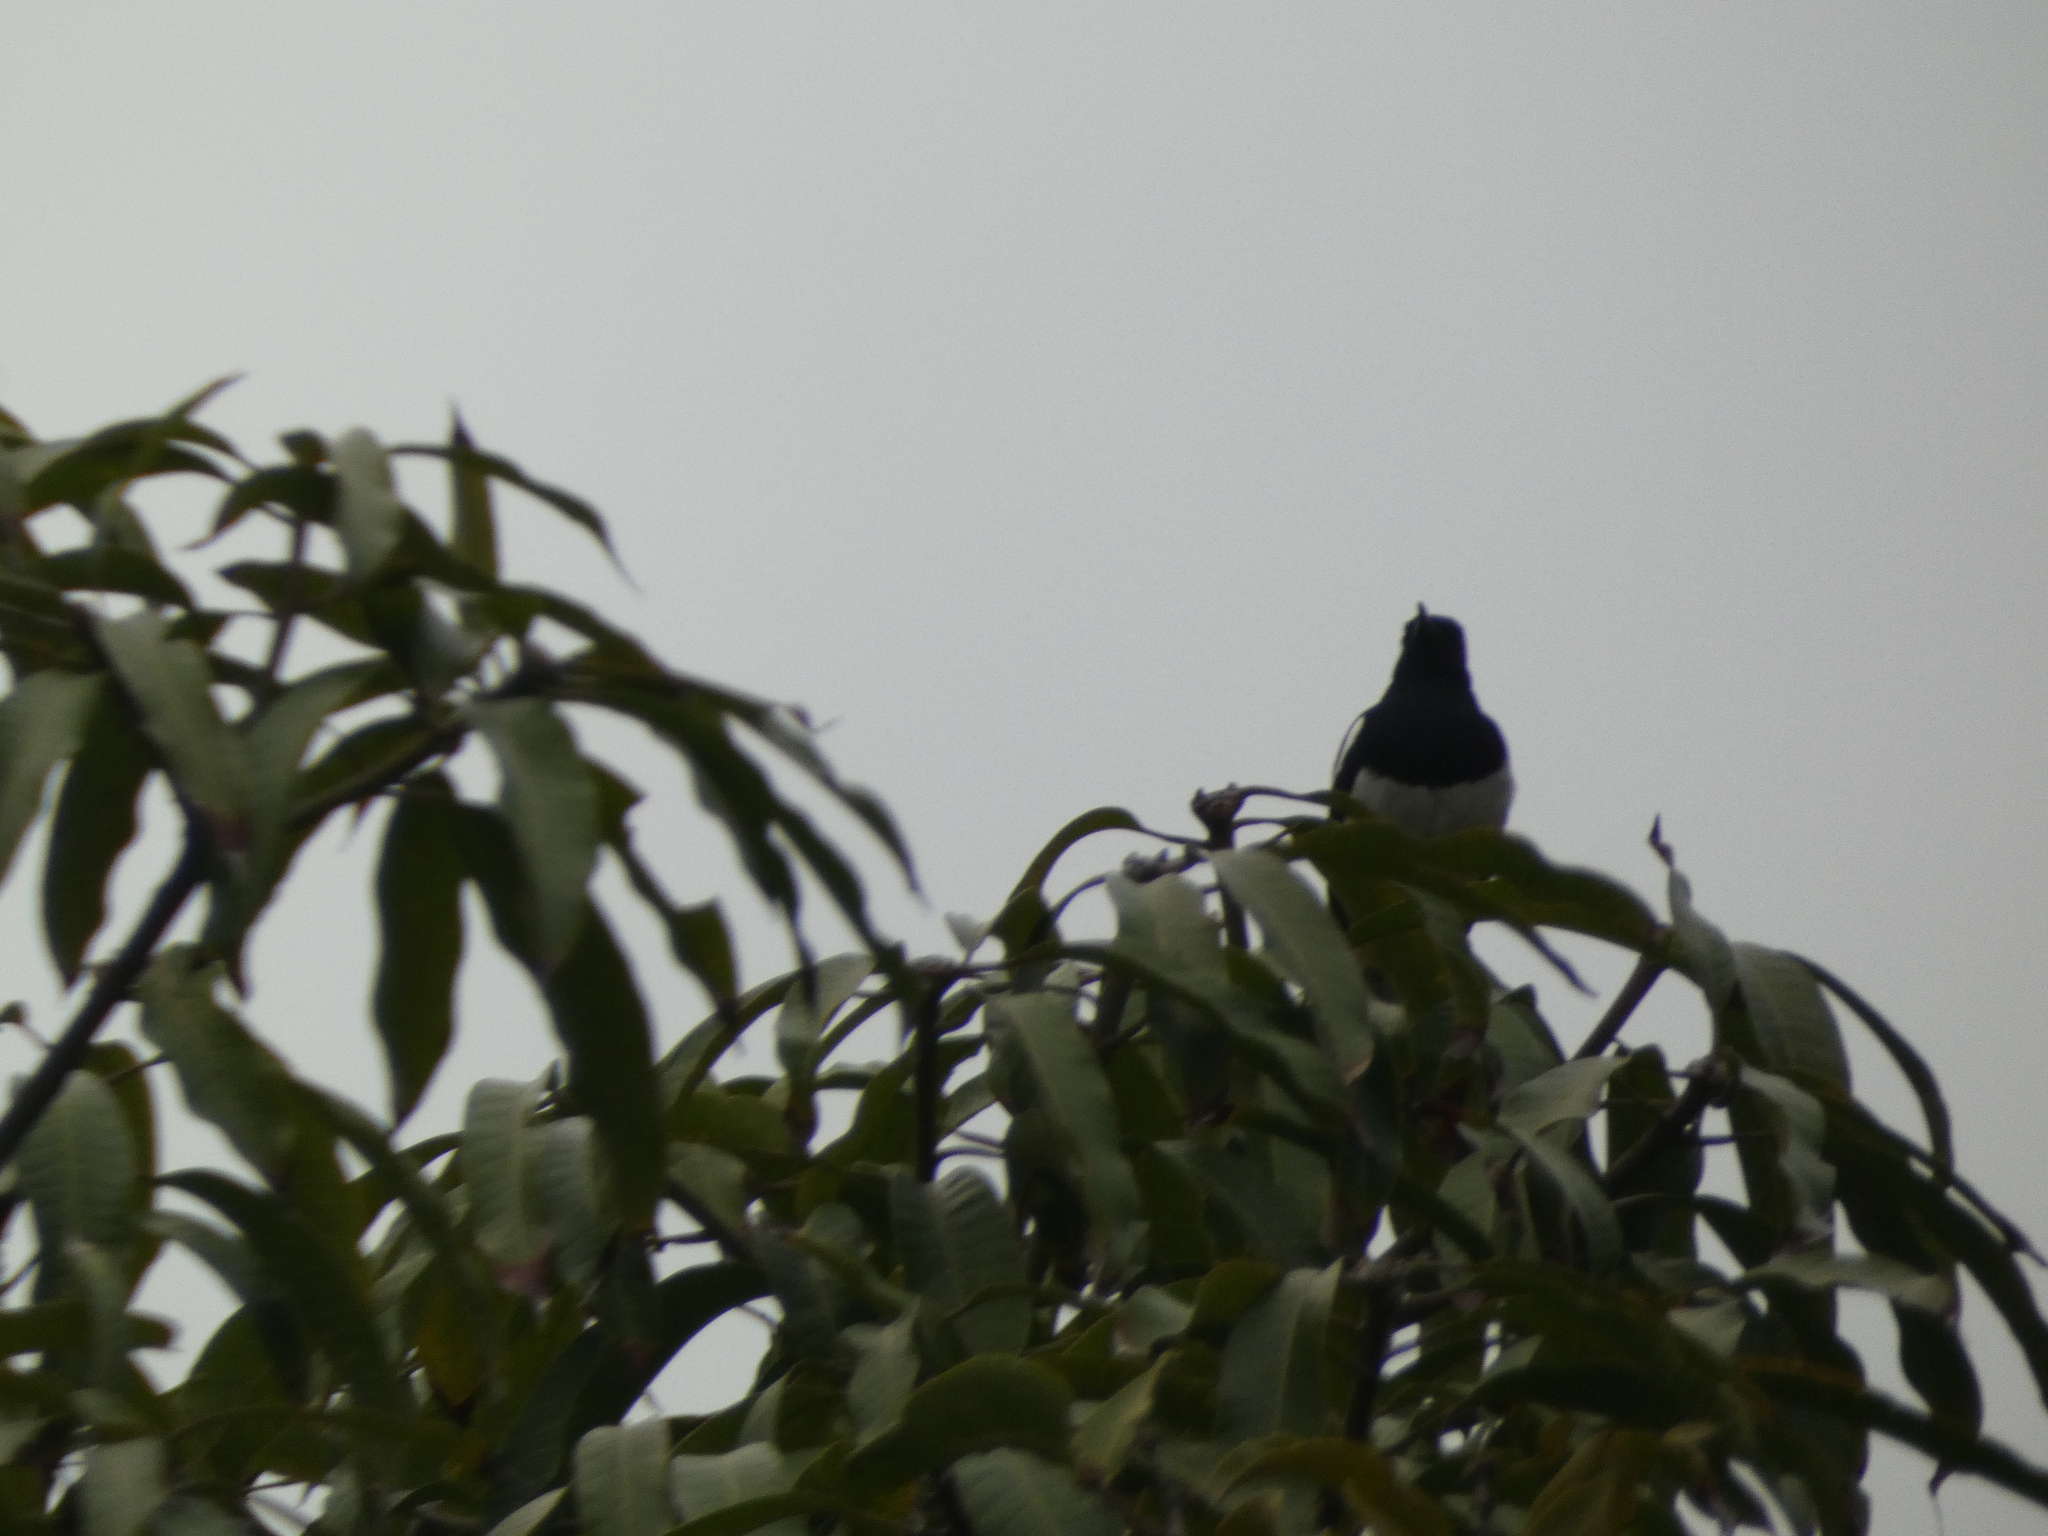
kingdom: Animalia
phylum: Chordata
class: Aves
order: Passeriformes
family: Muscicapidae
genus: Copsychus
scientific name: Copsychus saularis
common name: Oriental magpie-robin
